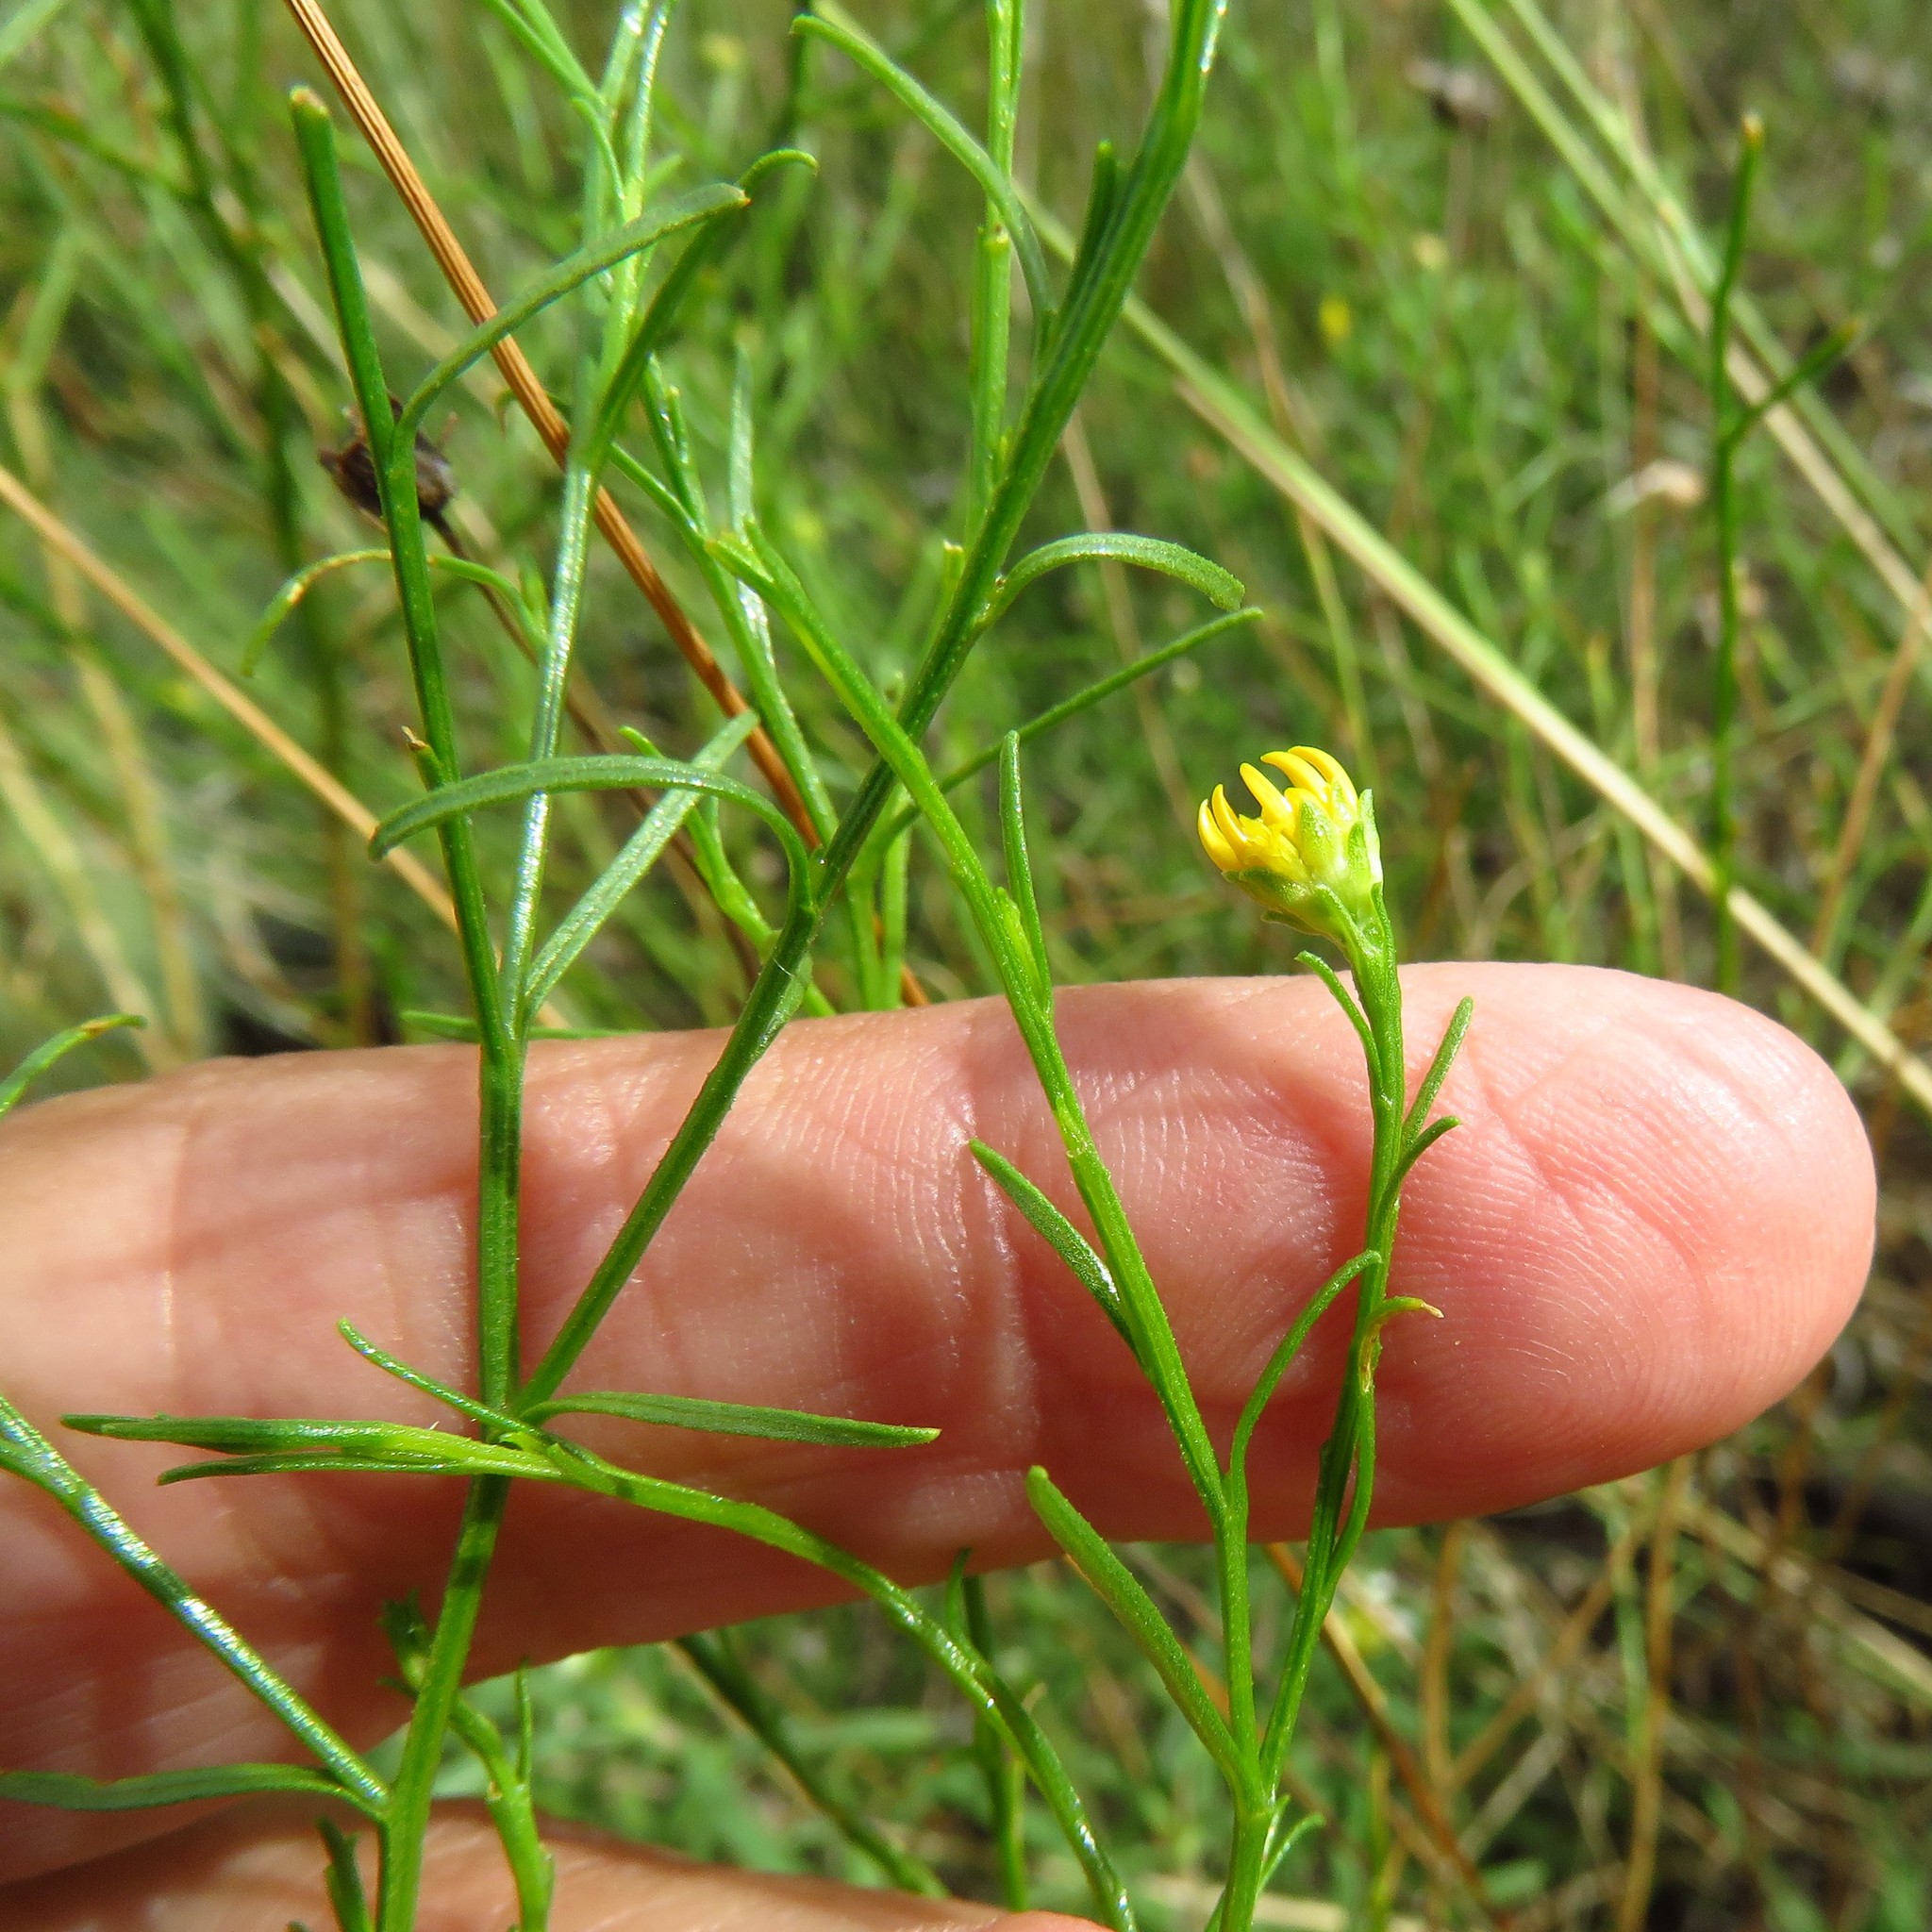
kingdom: Plantae
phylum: Tracheophyta
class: Magnoliopsida
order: Asterales
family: Asteraceae
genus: Gutierrezia
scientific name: Gutierrezia texana
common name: Texas snakeweed
